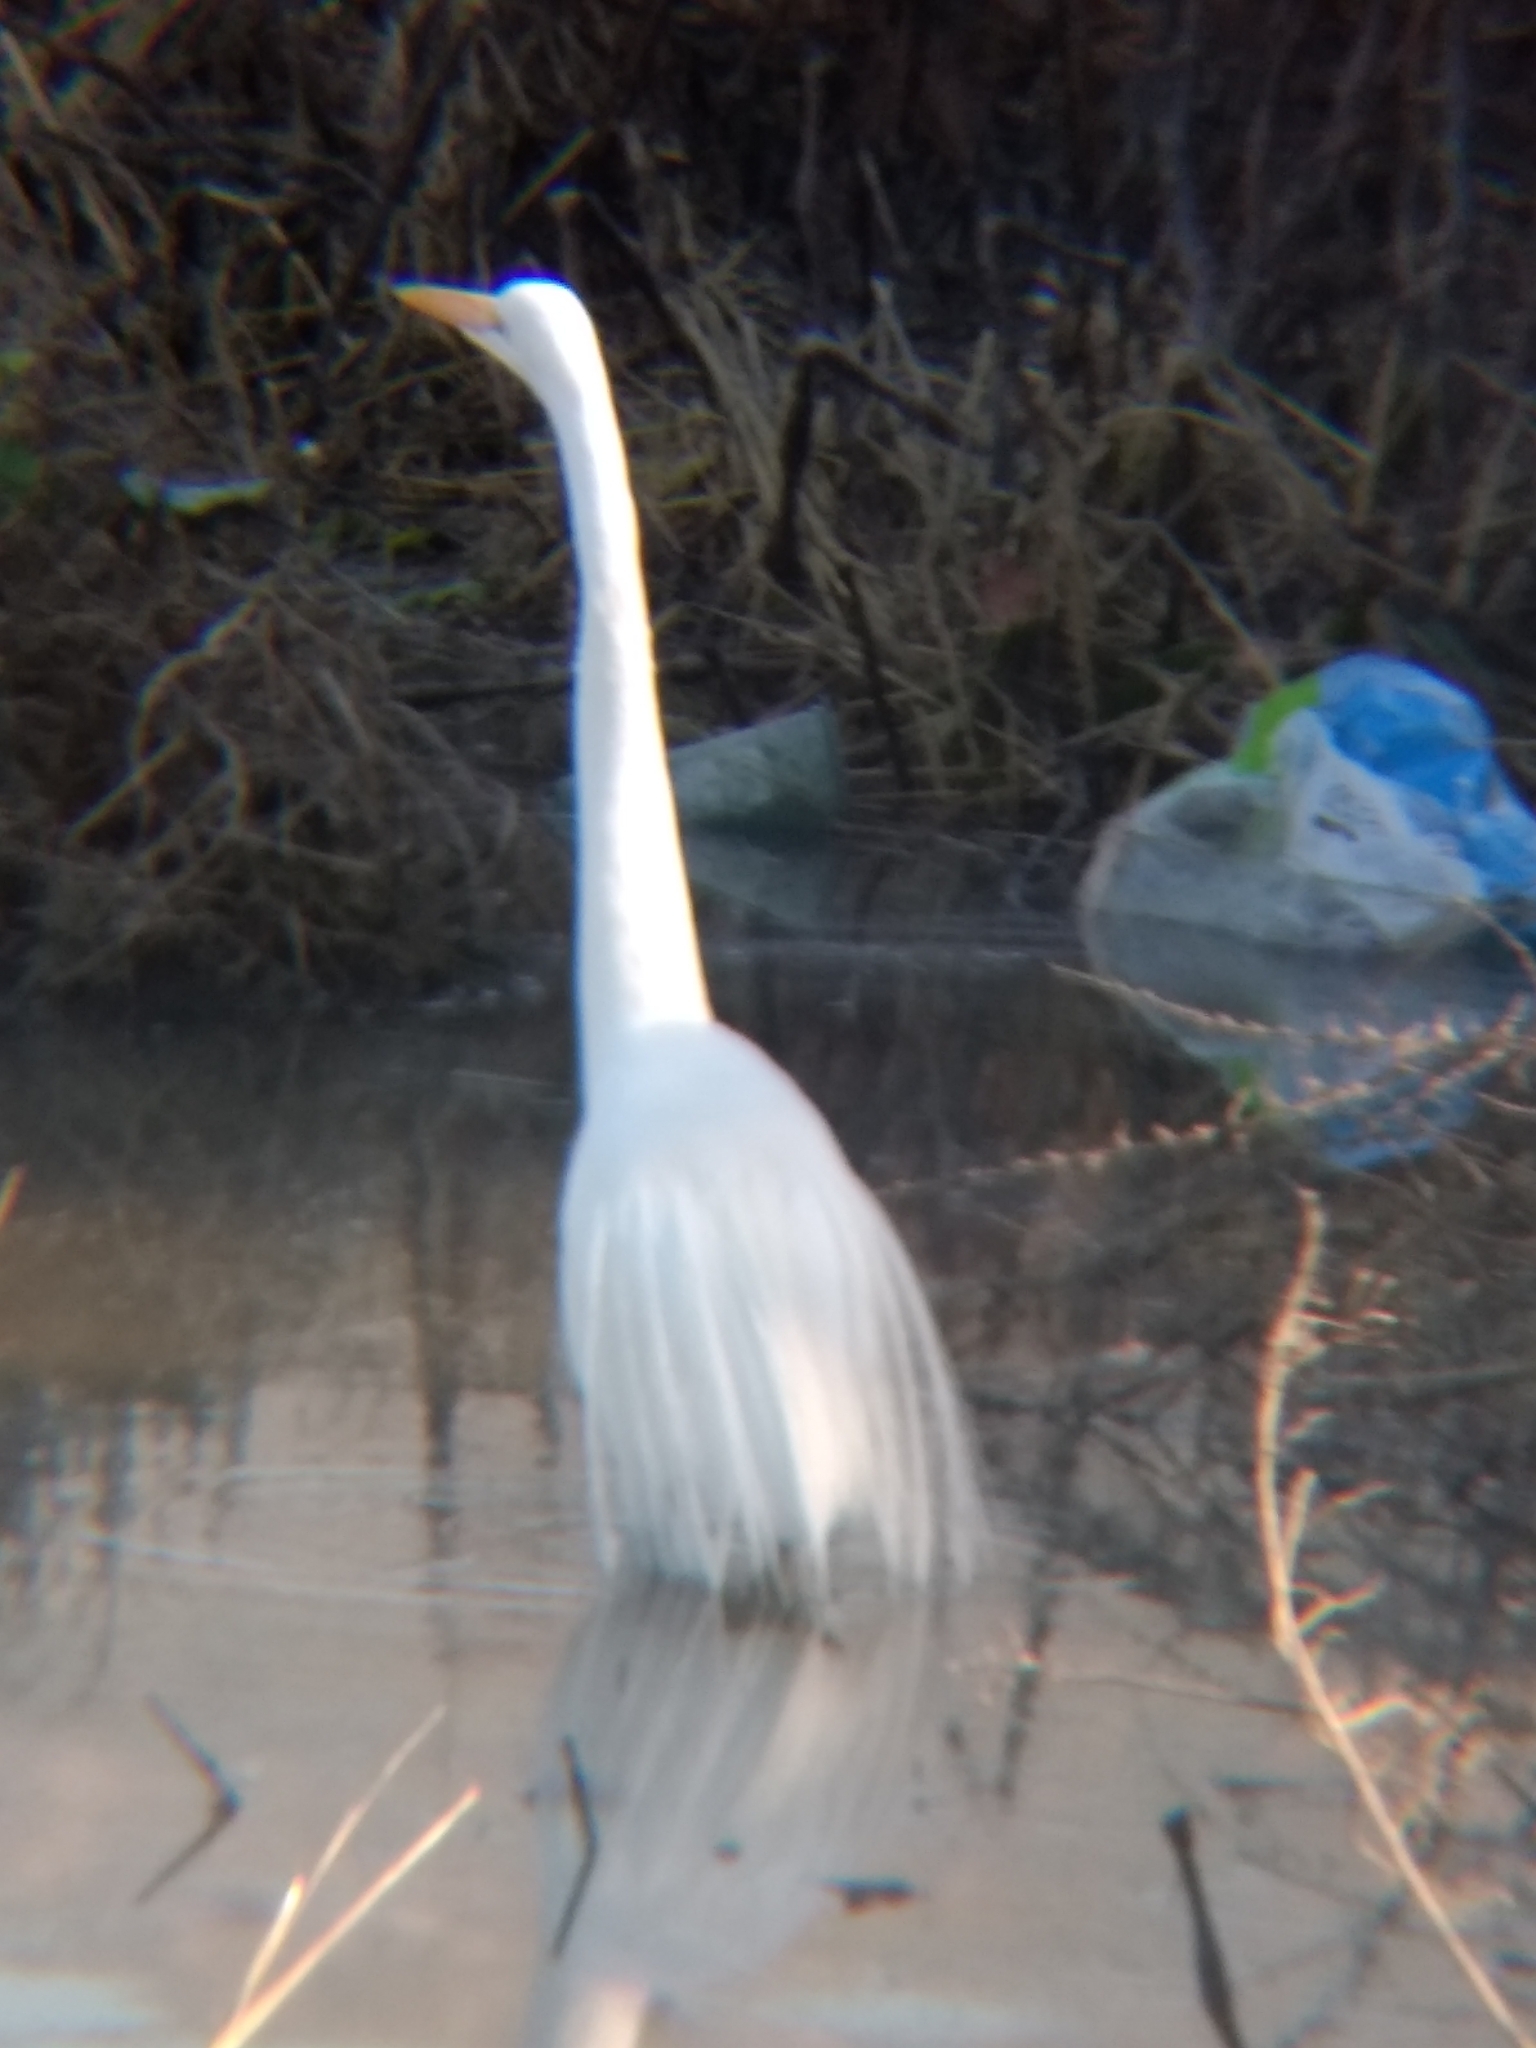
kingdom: Animalia
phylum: Chordata
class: Aves
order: Pelecaniformes
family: Ardeidae
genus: Ardea
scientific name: Ardea alba
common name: Great egret
